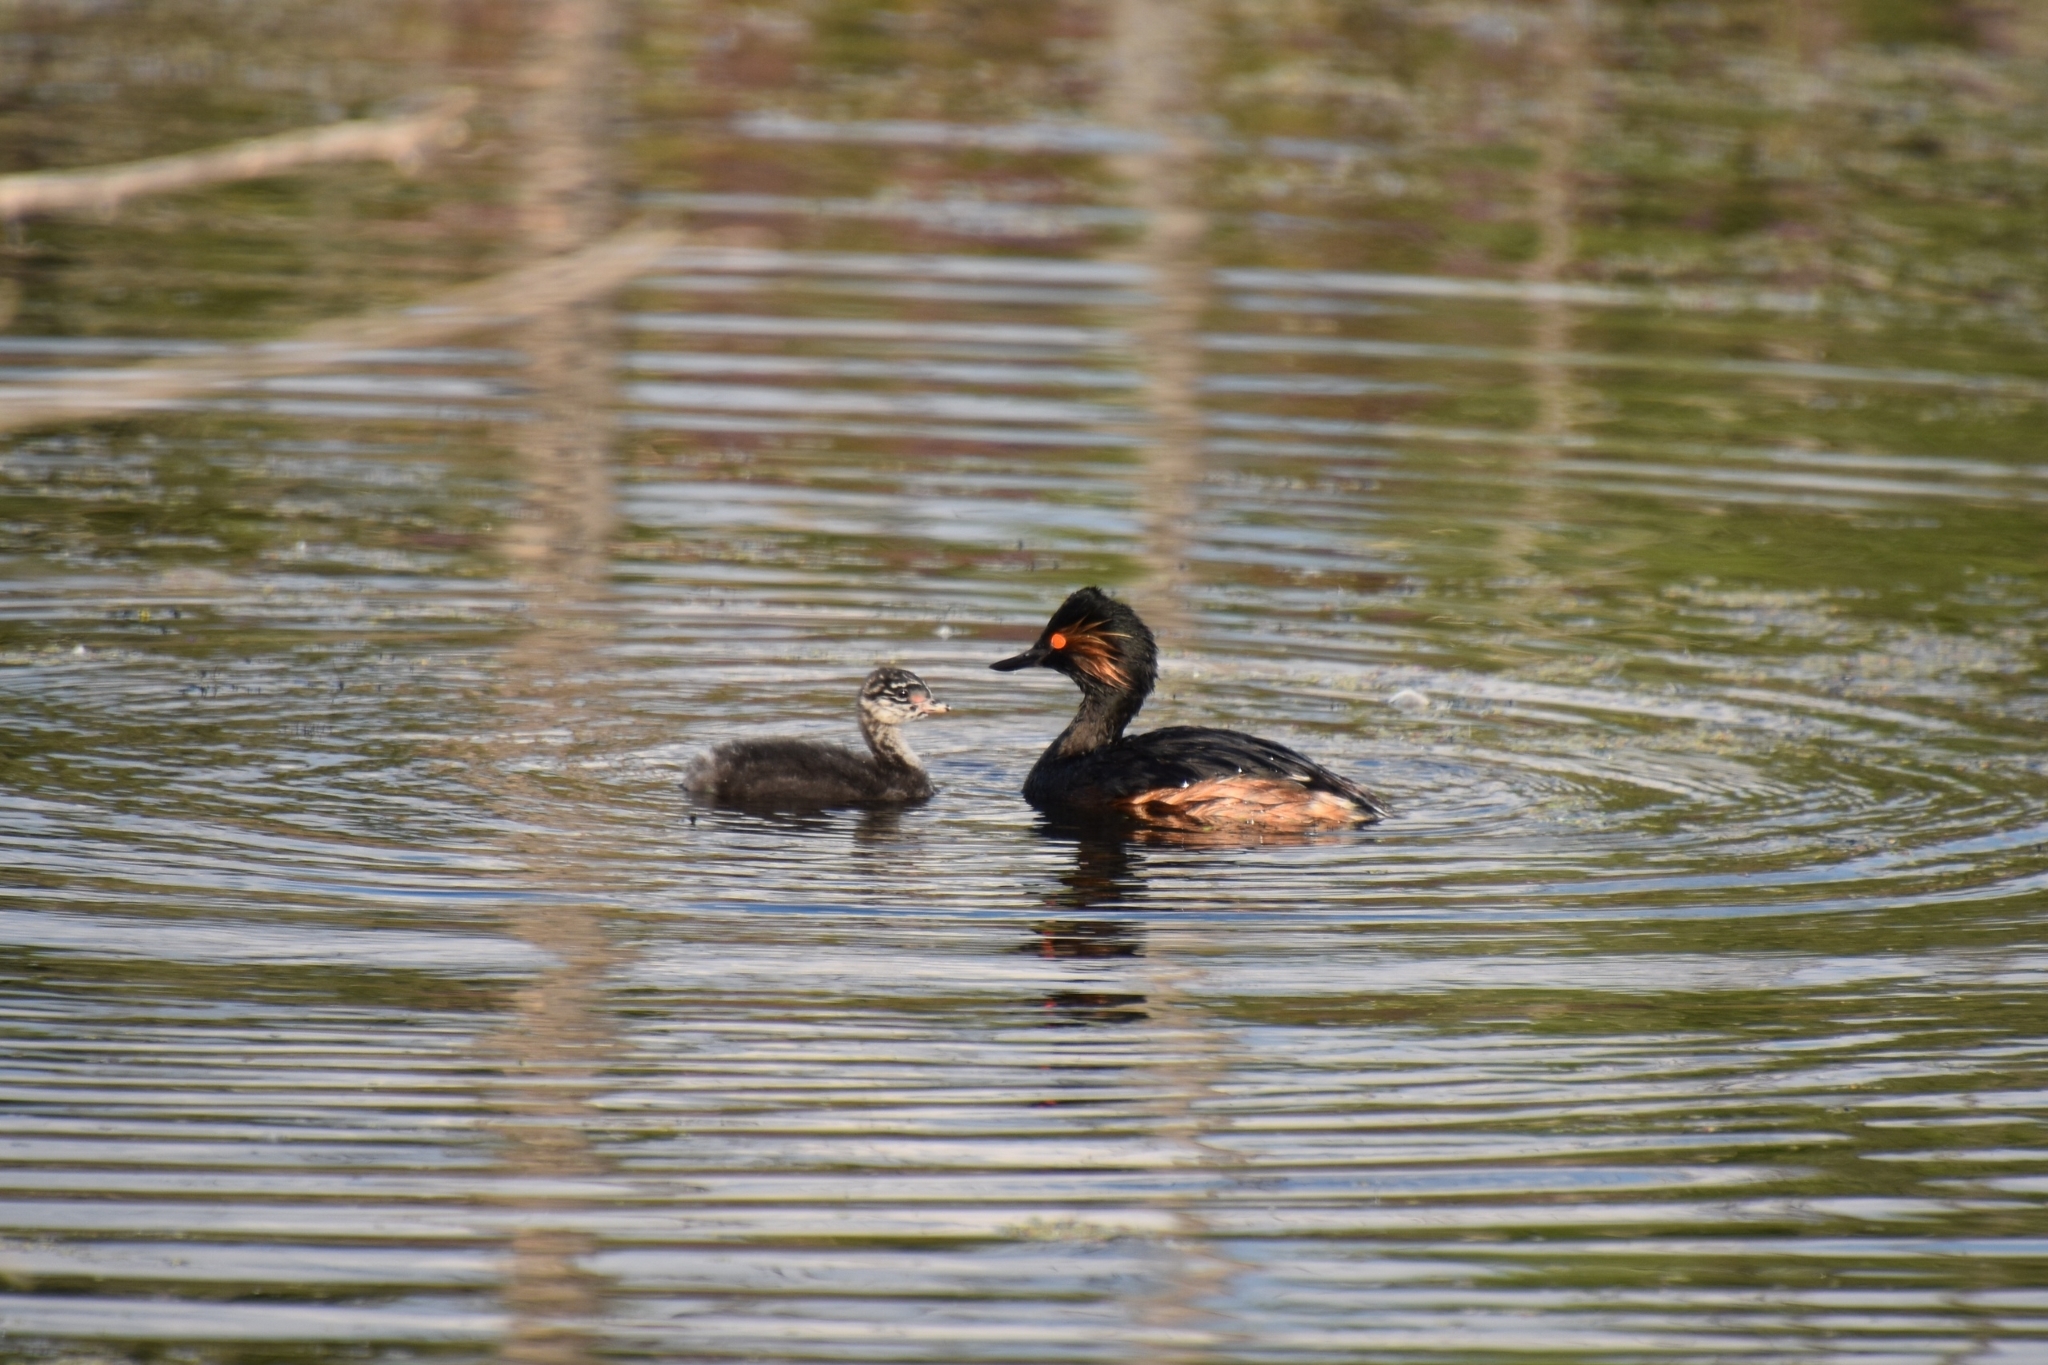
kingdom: Animalia
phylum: Chordata
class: Aves
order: Podicipediformes
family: Podicipedidae
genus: Podiceps
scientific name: Podiceps nigricollis
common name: Black-necked grebe
